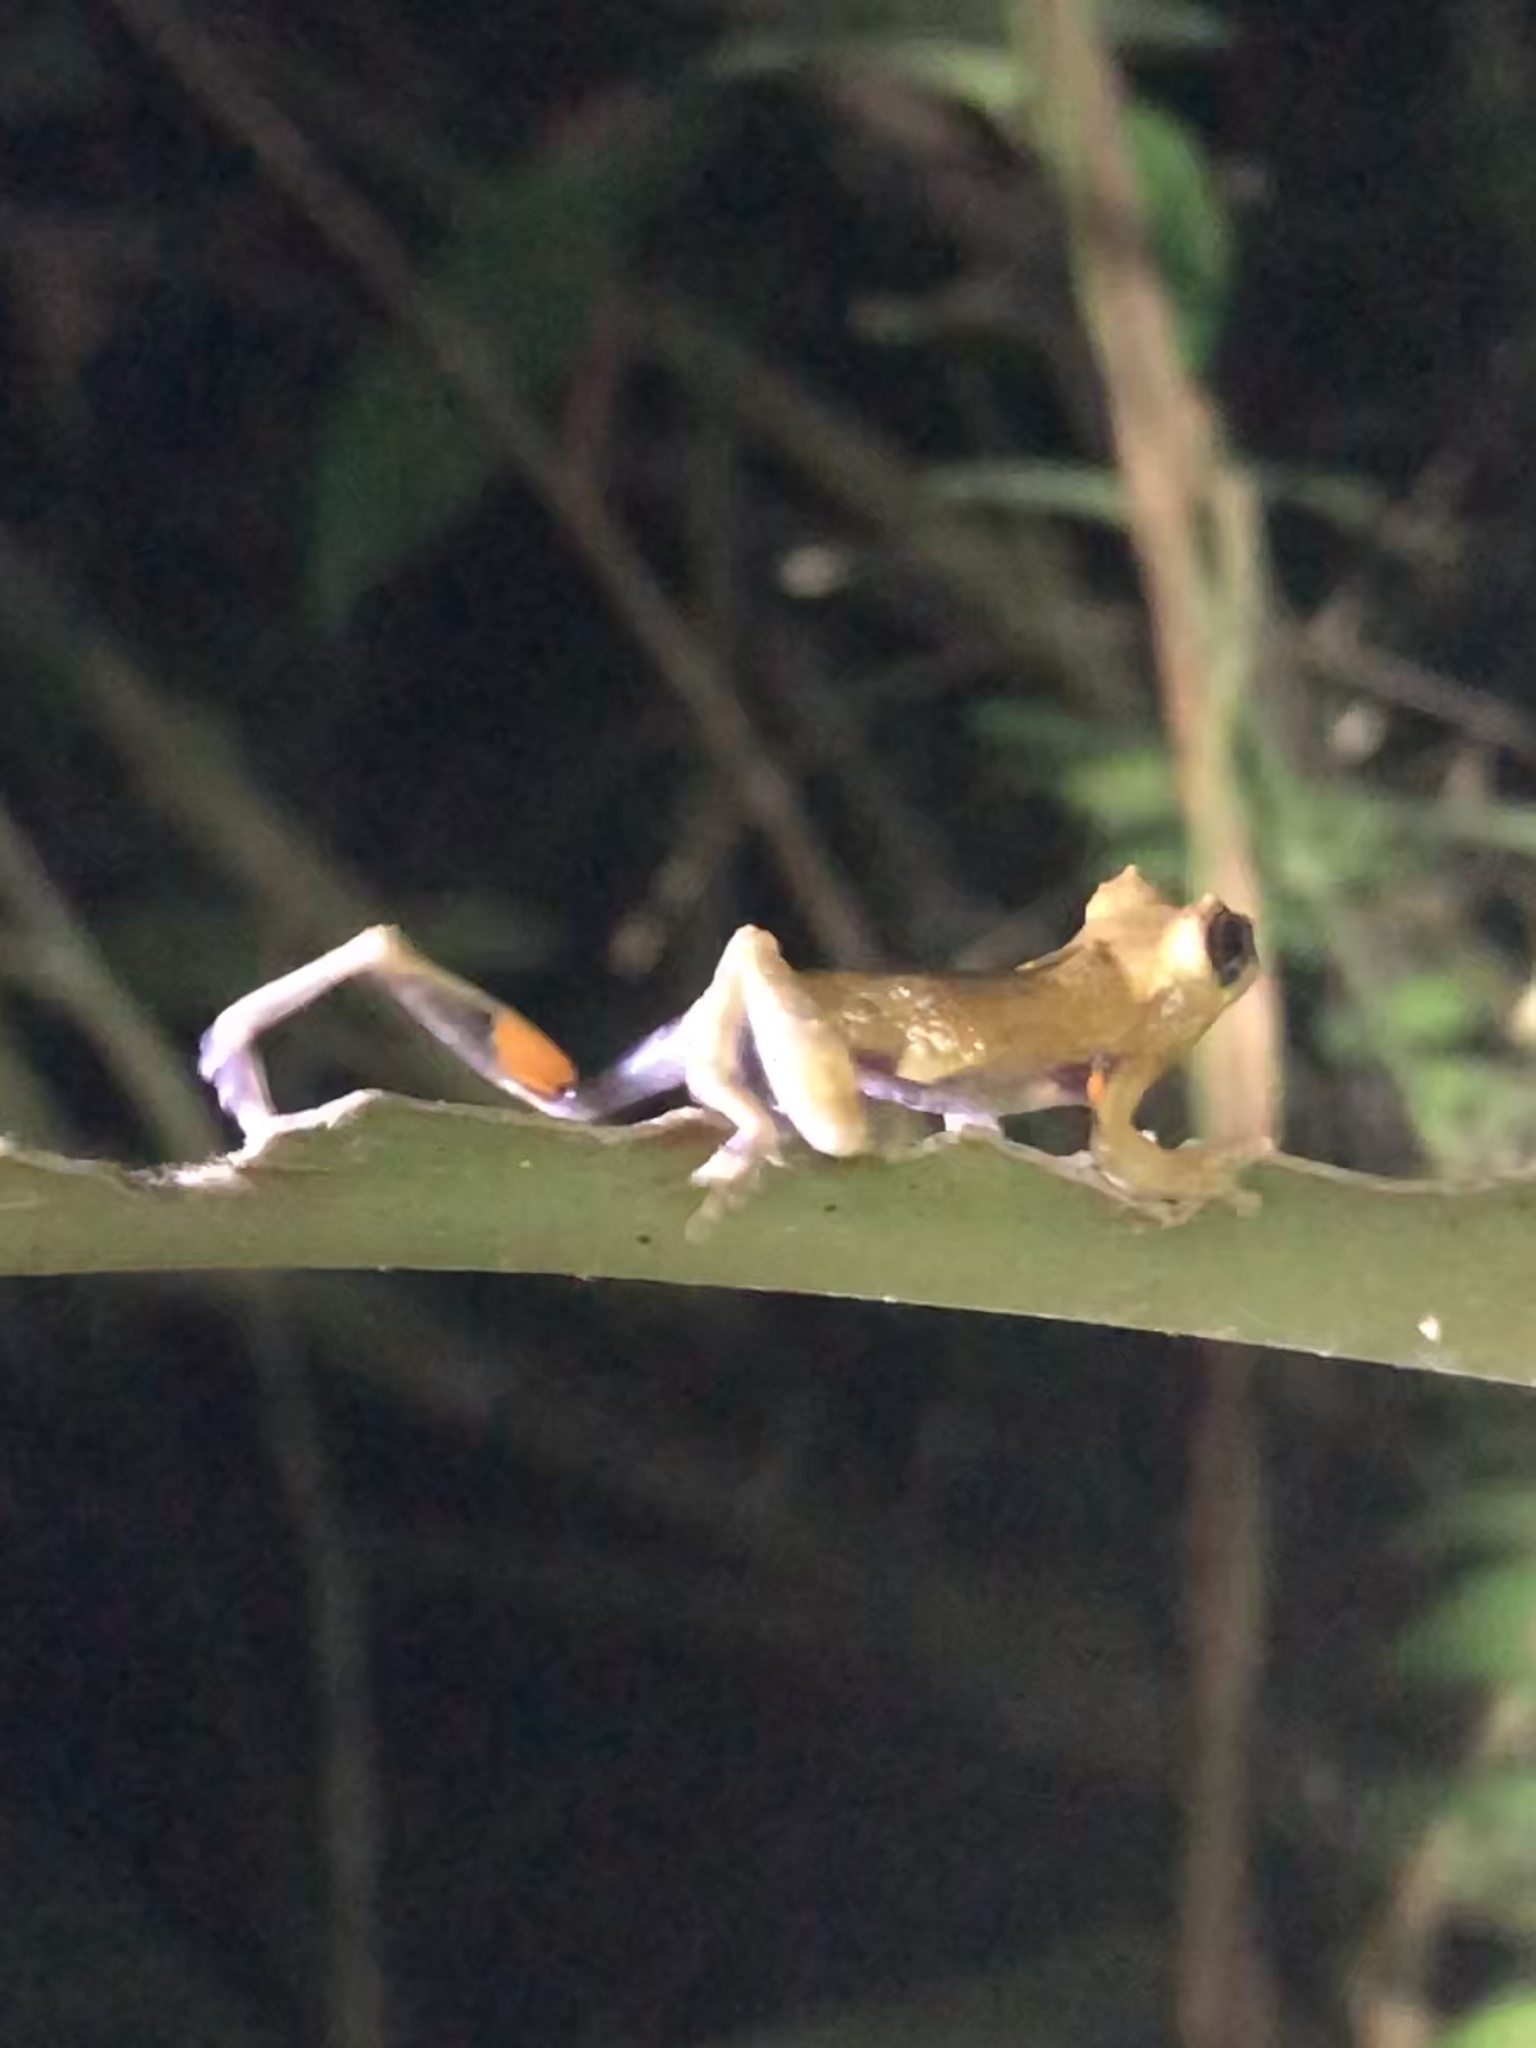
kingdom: Animalia
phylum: Chordata
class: Amphibia
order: Anura
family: Hylidae
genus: Dendropsophus
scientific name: Dendropsophus kamagarini
